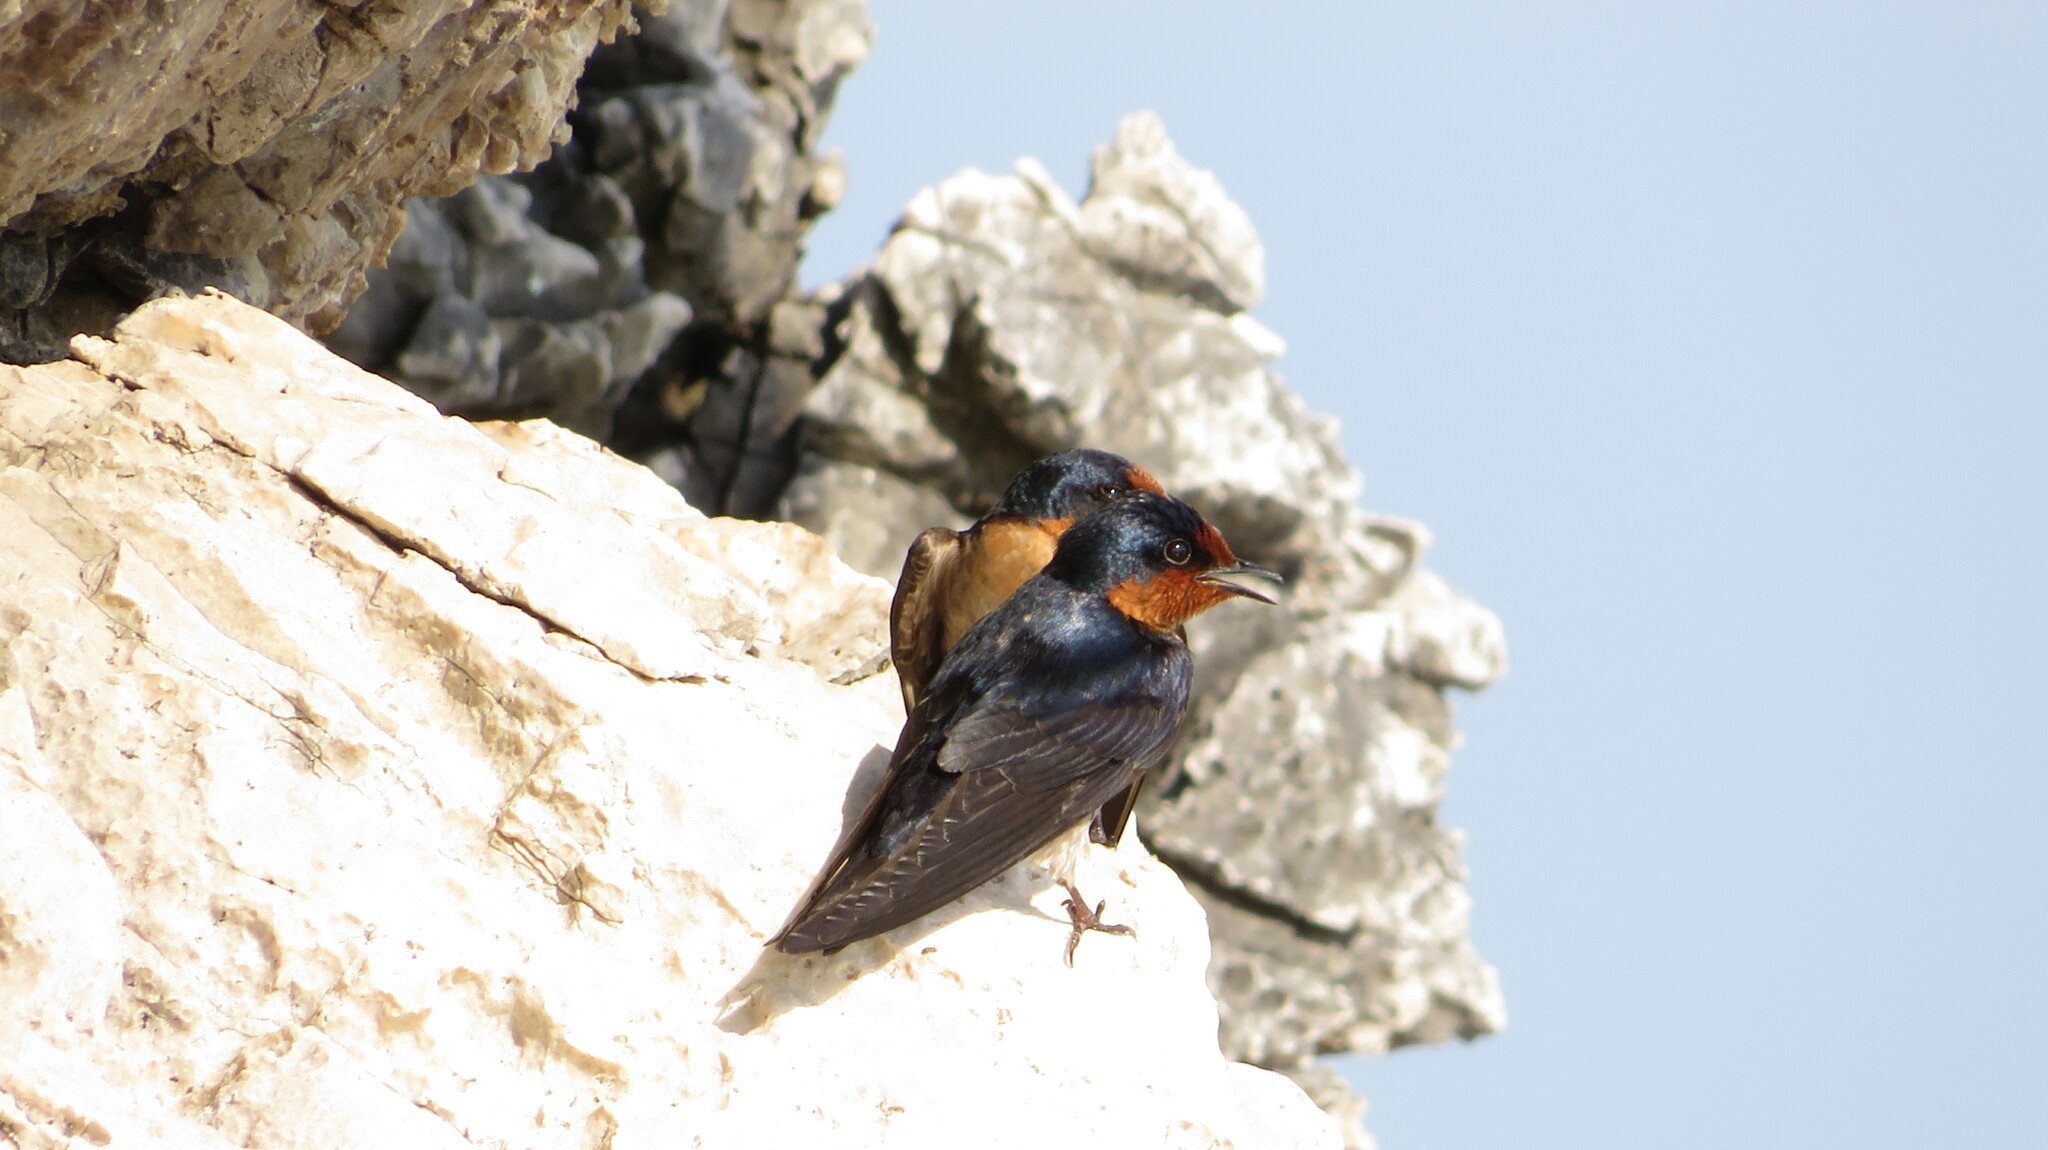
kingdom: Animalia
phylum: Chordata
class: Aves
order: Passeriformes
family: Hirundinidae
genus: Hirundo
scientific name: Hirundo tahitica
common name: Pacific swallow
